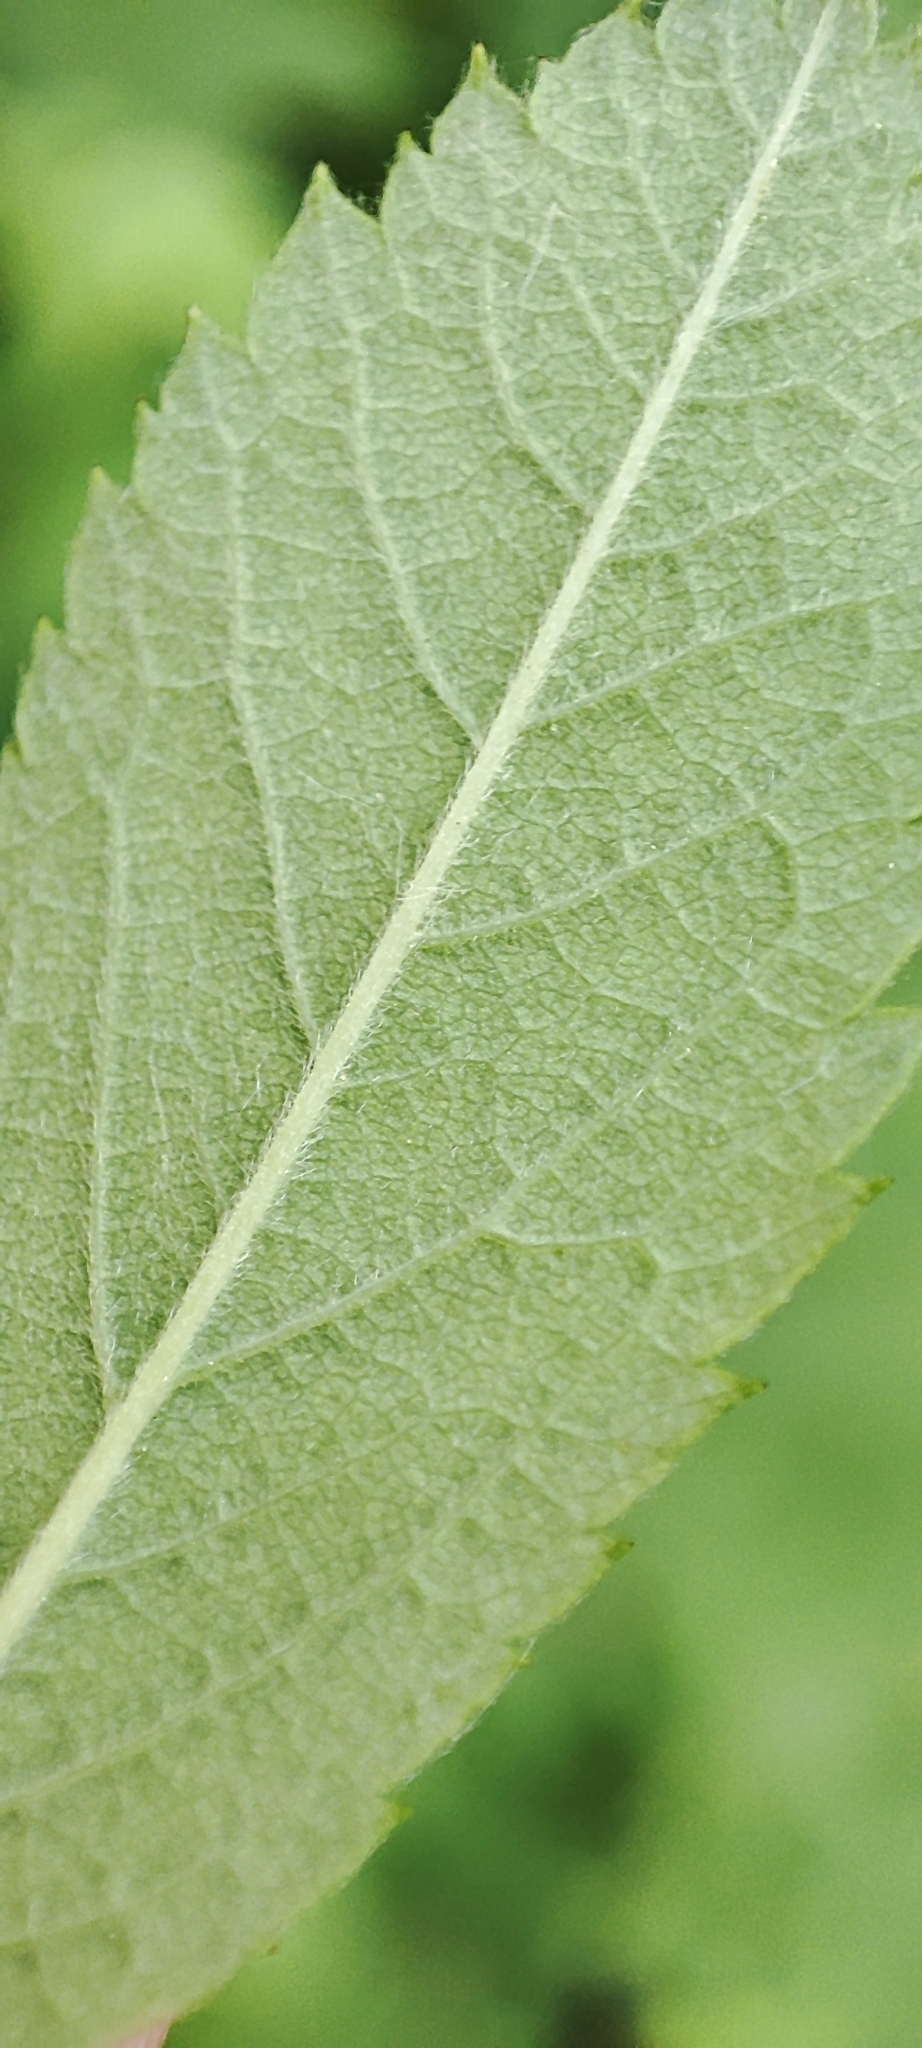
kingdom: Plantae
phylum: Tracheophyta
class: Magnoliopsida
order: Rosales
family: Rosaceae
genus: Rosa
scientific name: Rosa majalis
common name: Cinnamon rose
